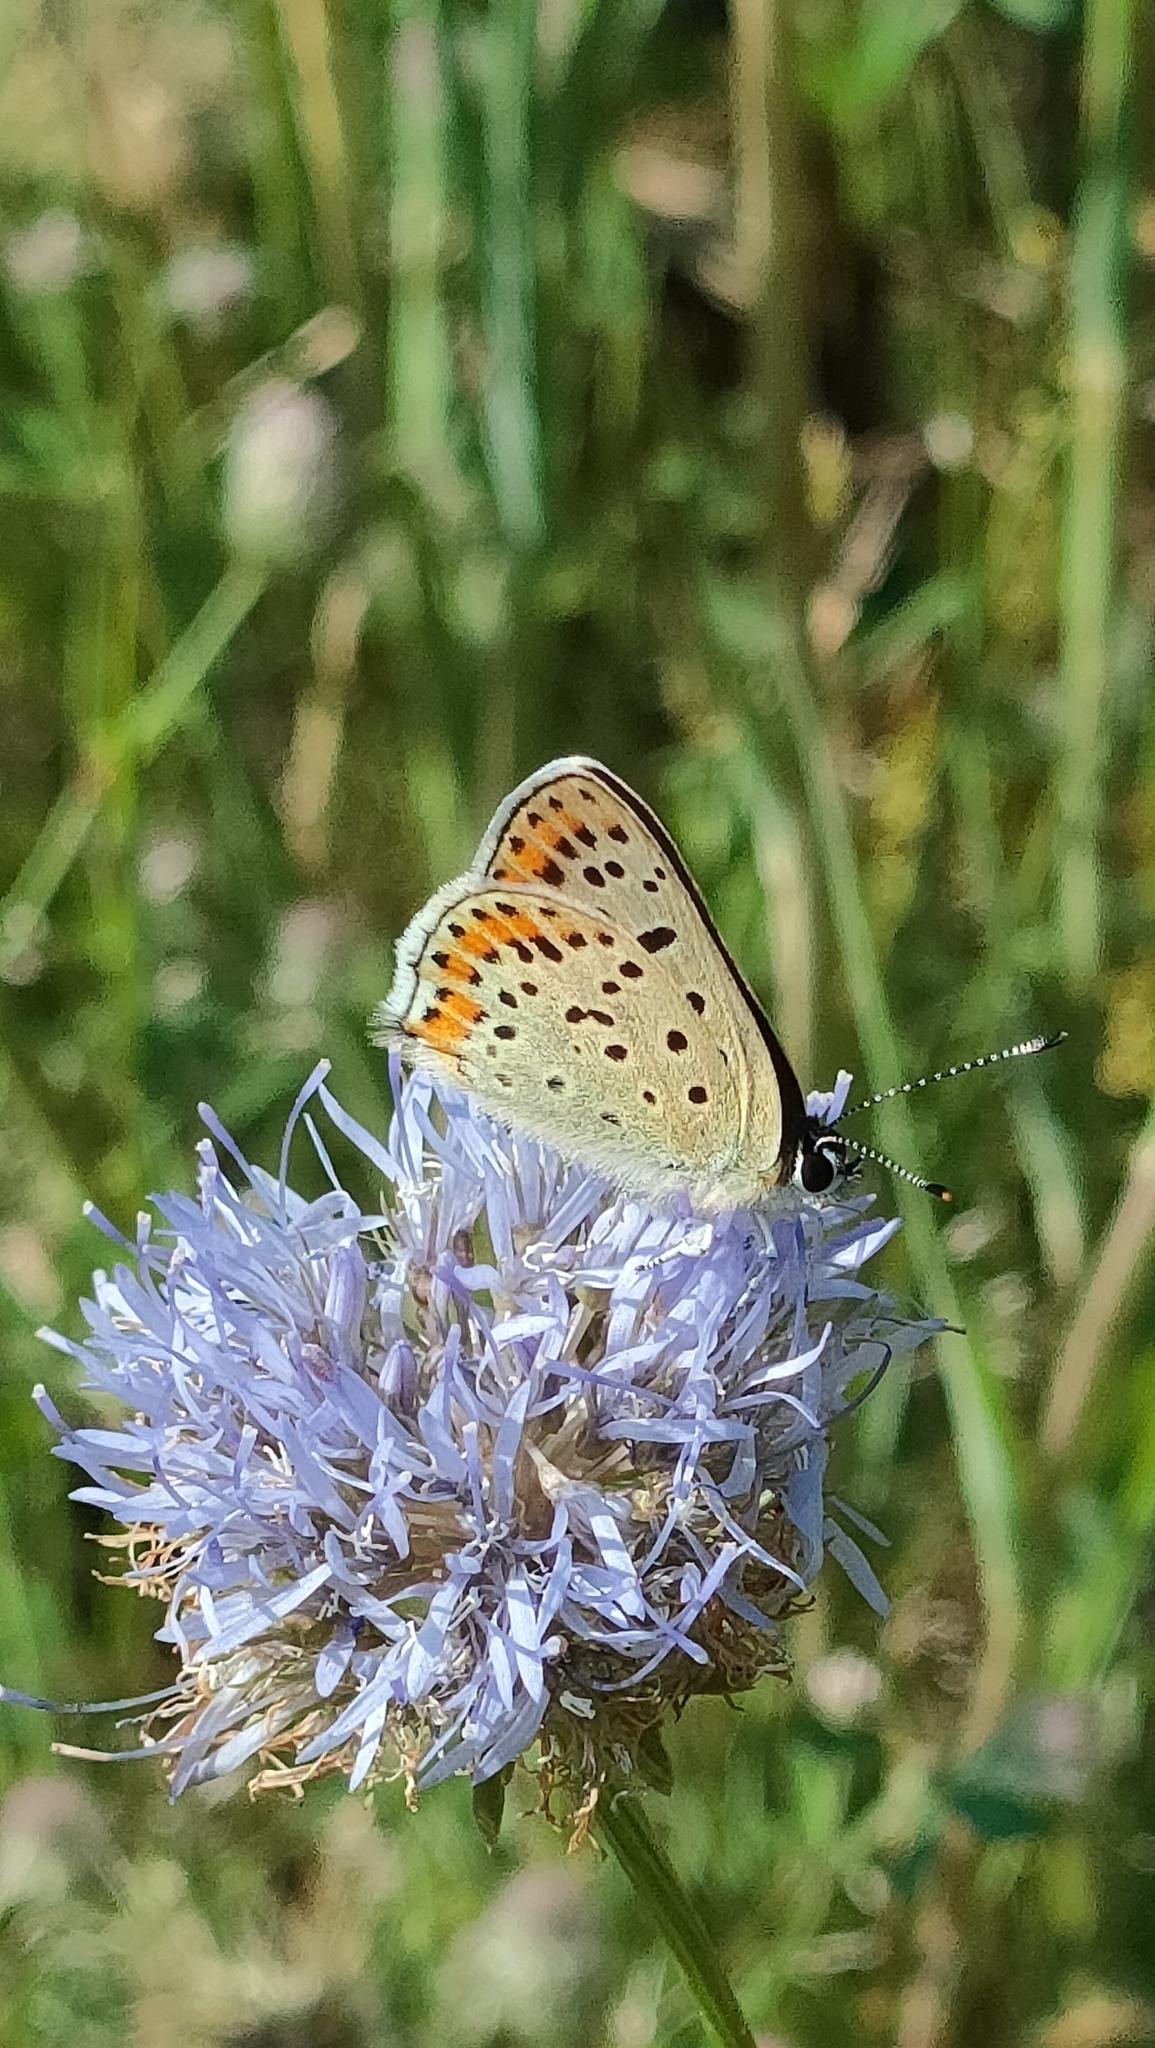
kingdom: Animalia
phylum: Arthropoda
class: Insecta
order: Lepidoptera
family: Lycaenidae
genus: Loweia
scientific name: Loweia tityrus
